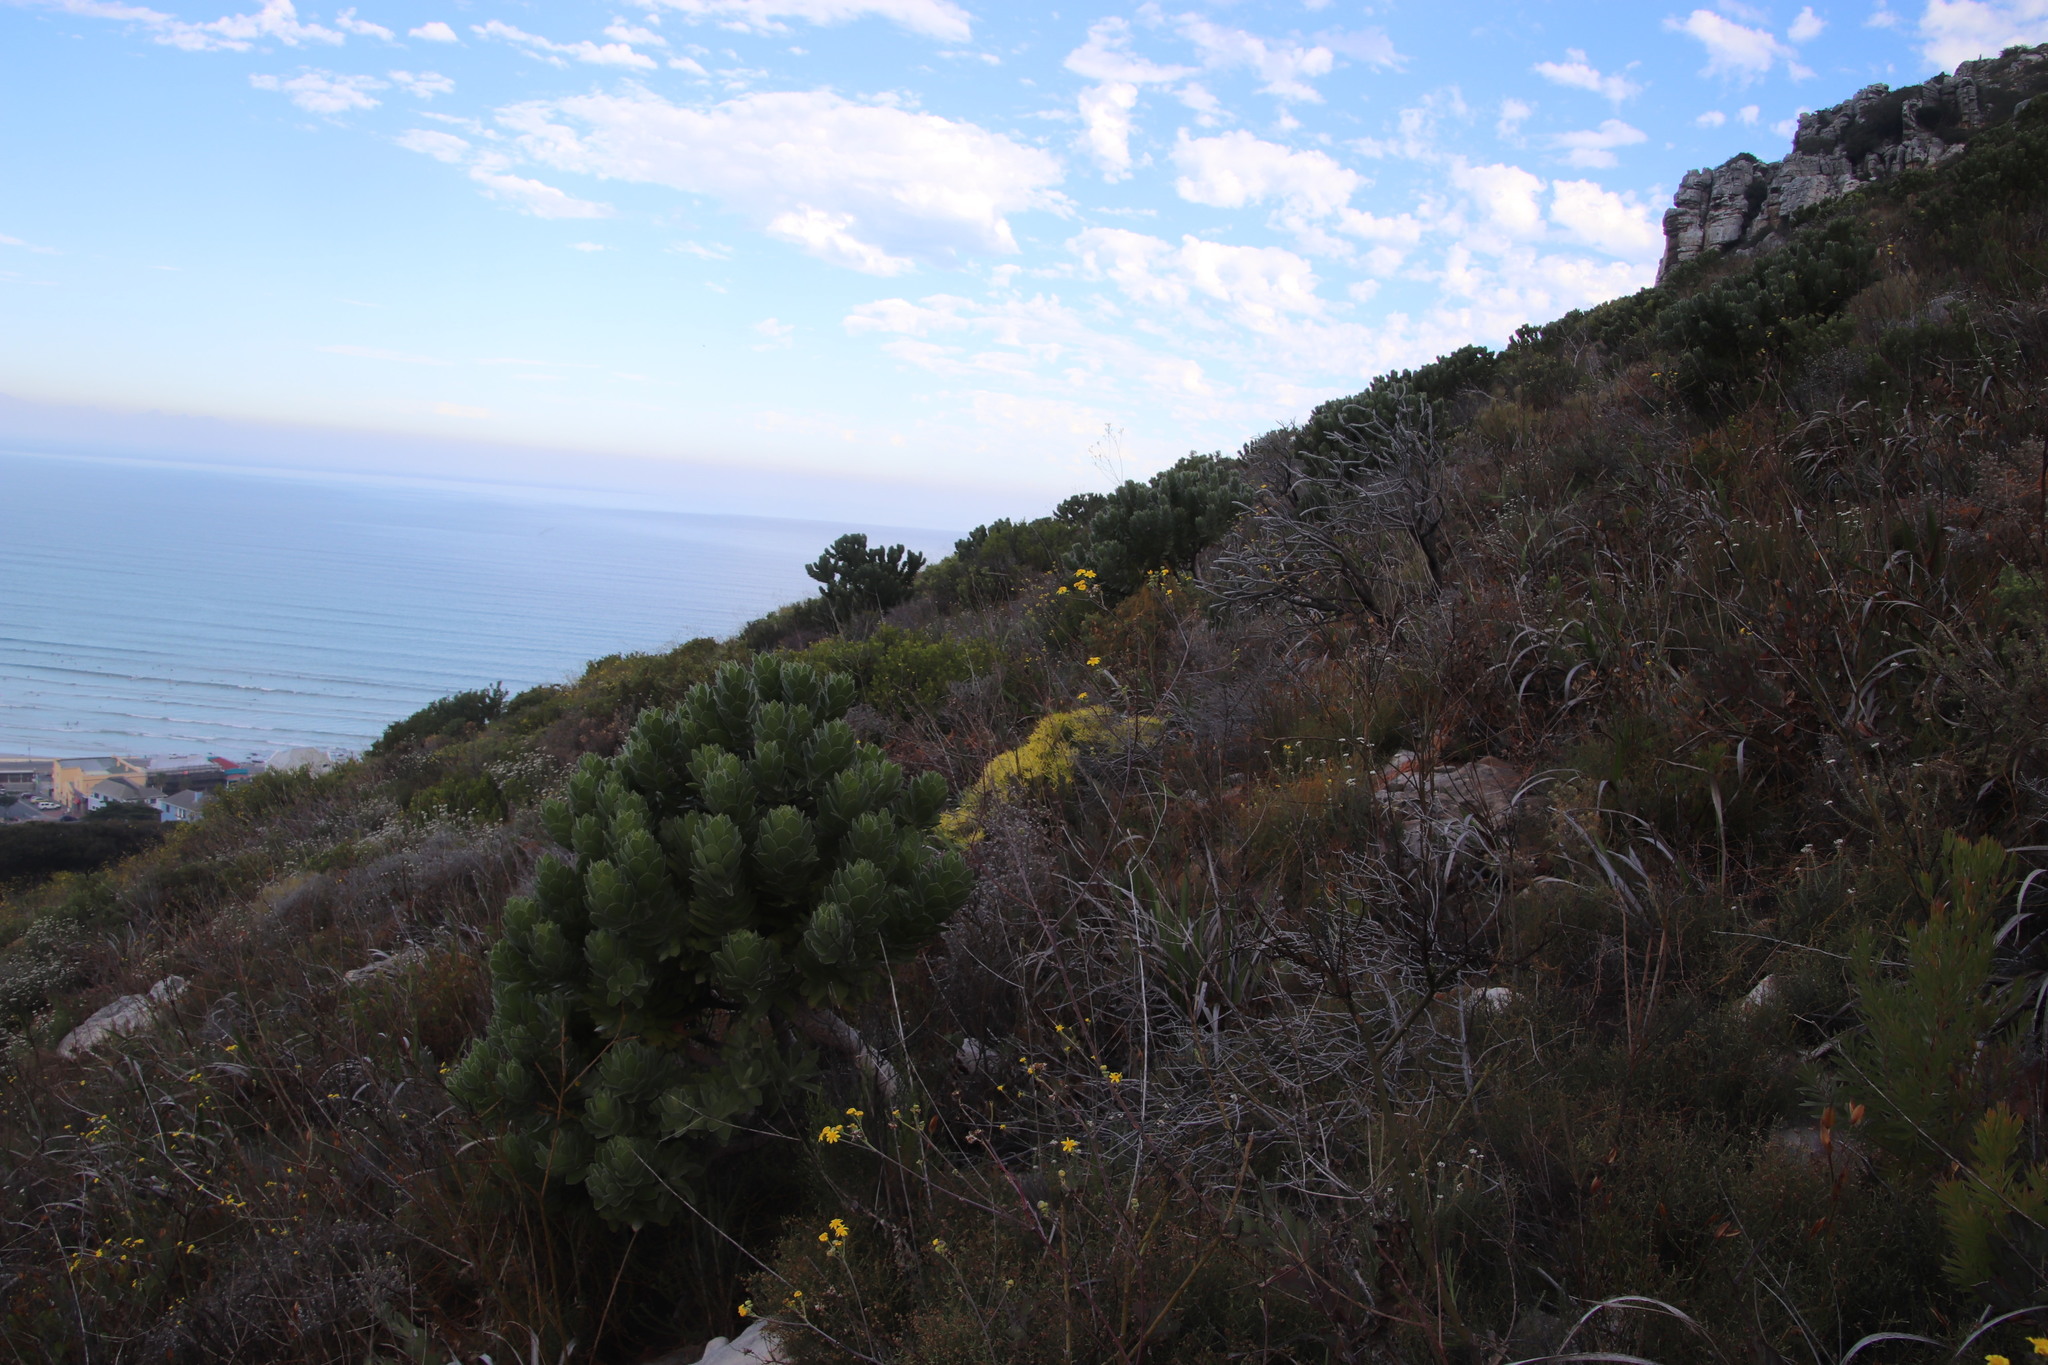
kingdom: Plantae
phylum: Tracheophyta
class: Magnoliopsida
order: Proteales
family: Proteaceae
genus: Leucospermum
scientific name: Leucospermum conocarpodendron
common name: Tree pincushion
